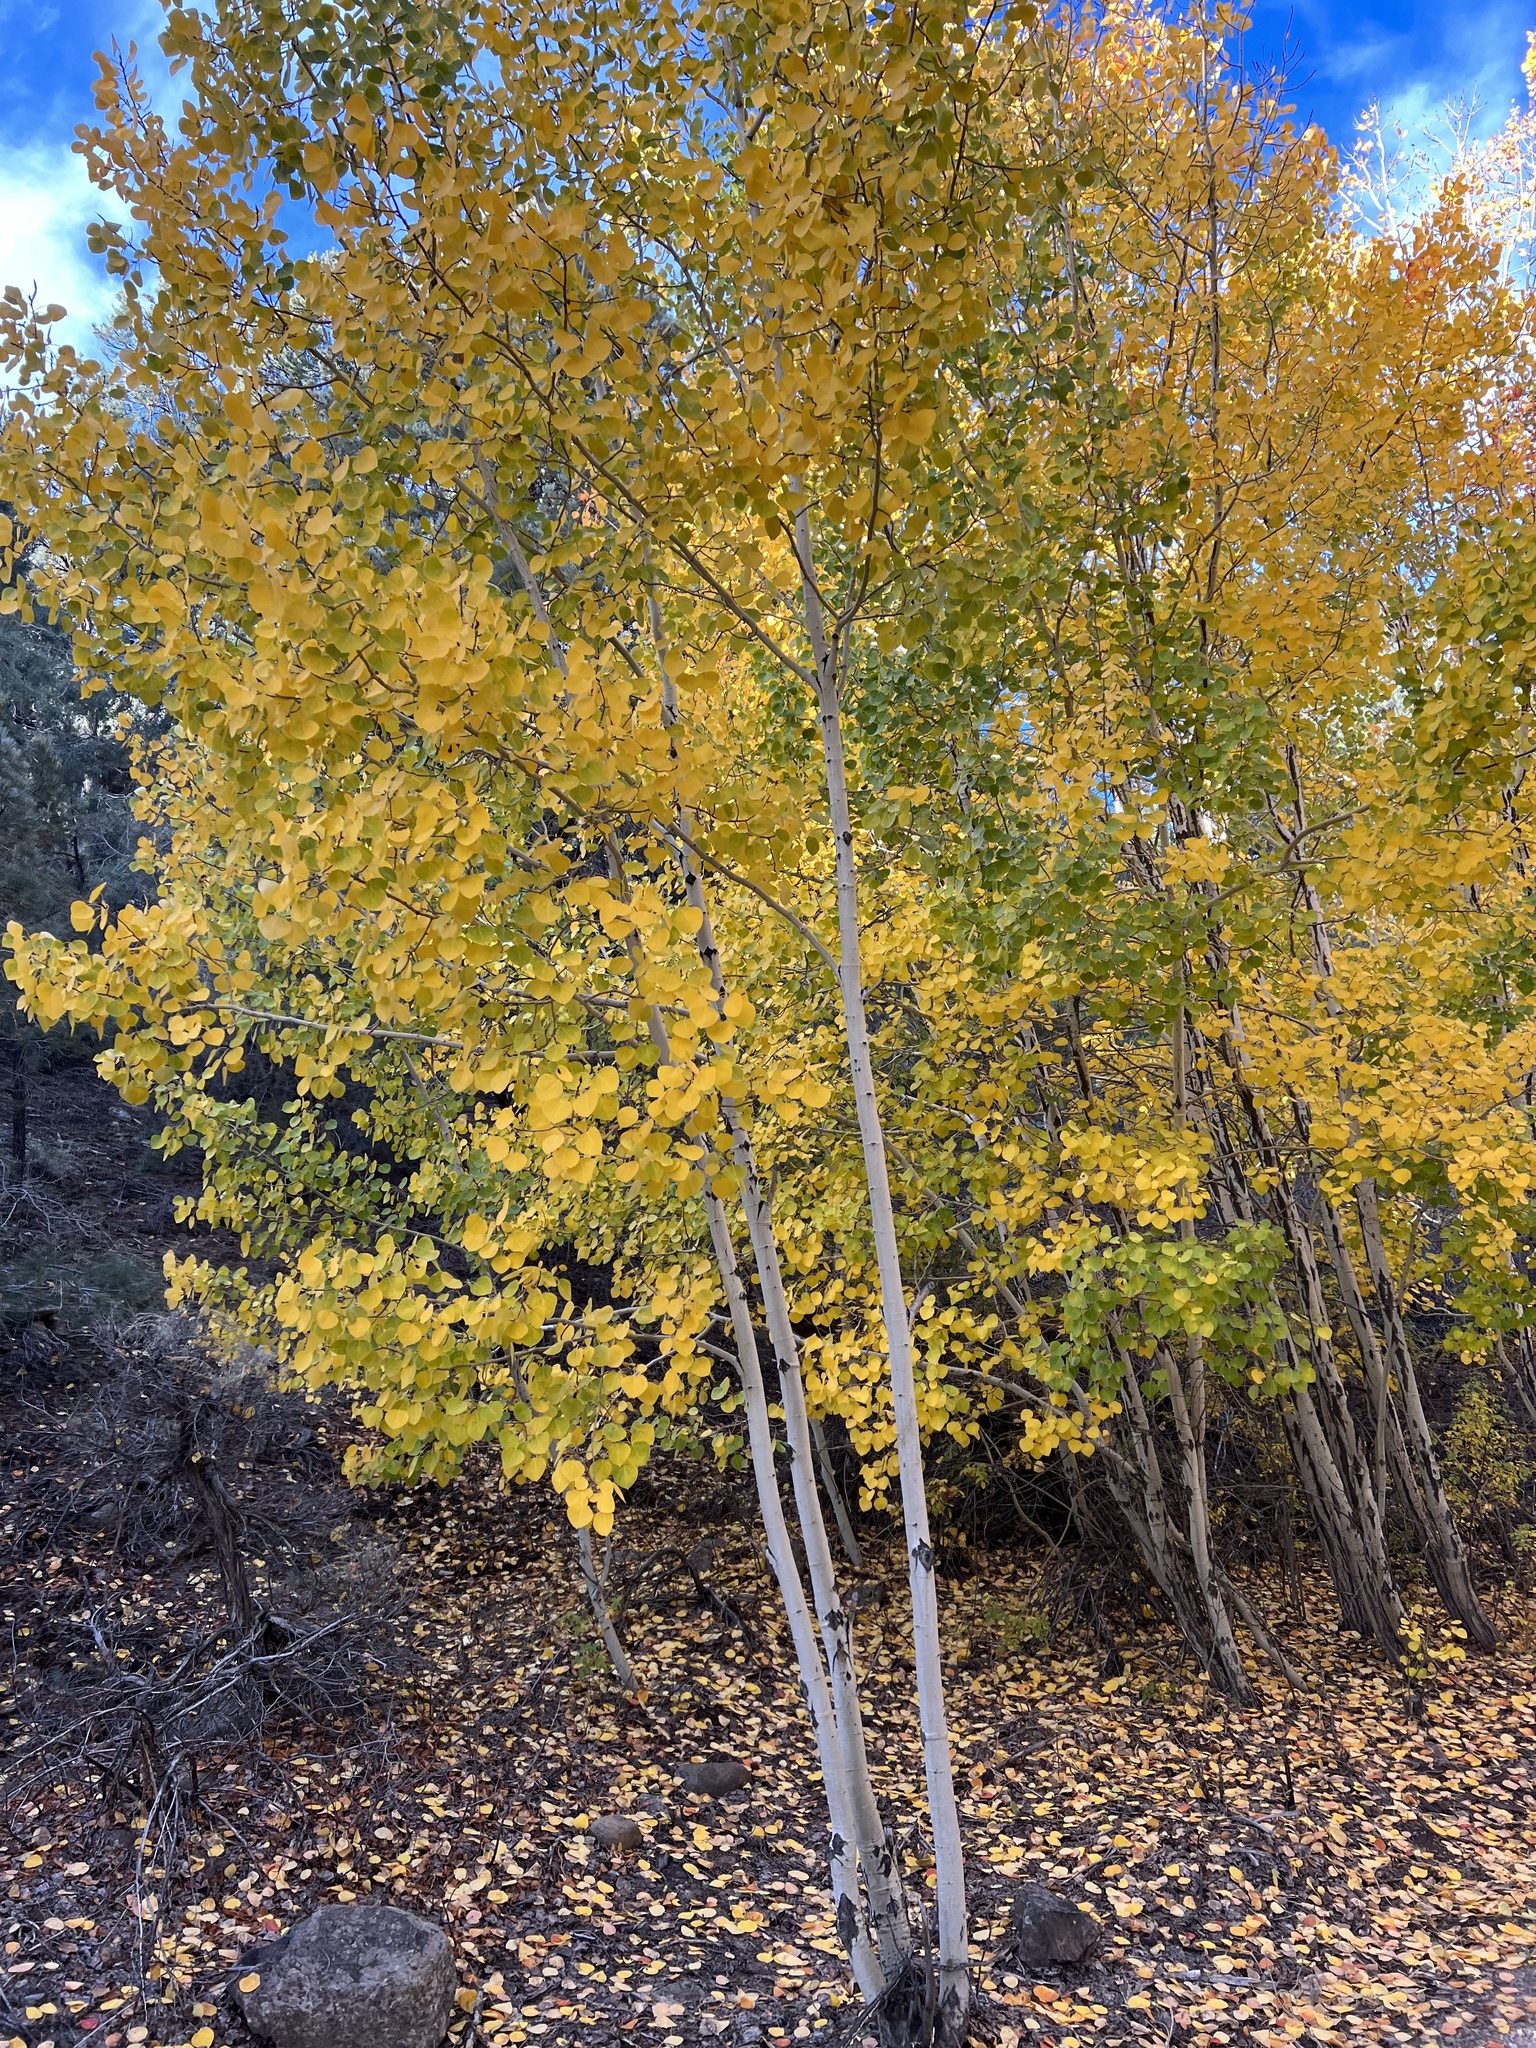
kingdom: Plantae
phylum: Tracheophyta
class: Magnoliopsida
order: Malpighiales
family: Salicaceae
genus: Populus
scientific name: Populus tremuloides
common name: Quaking aspen
